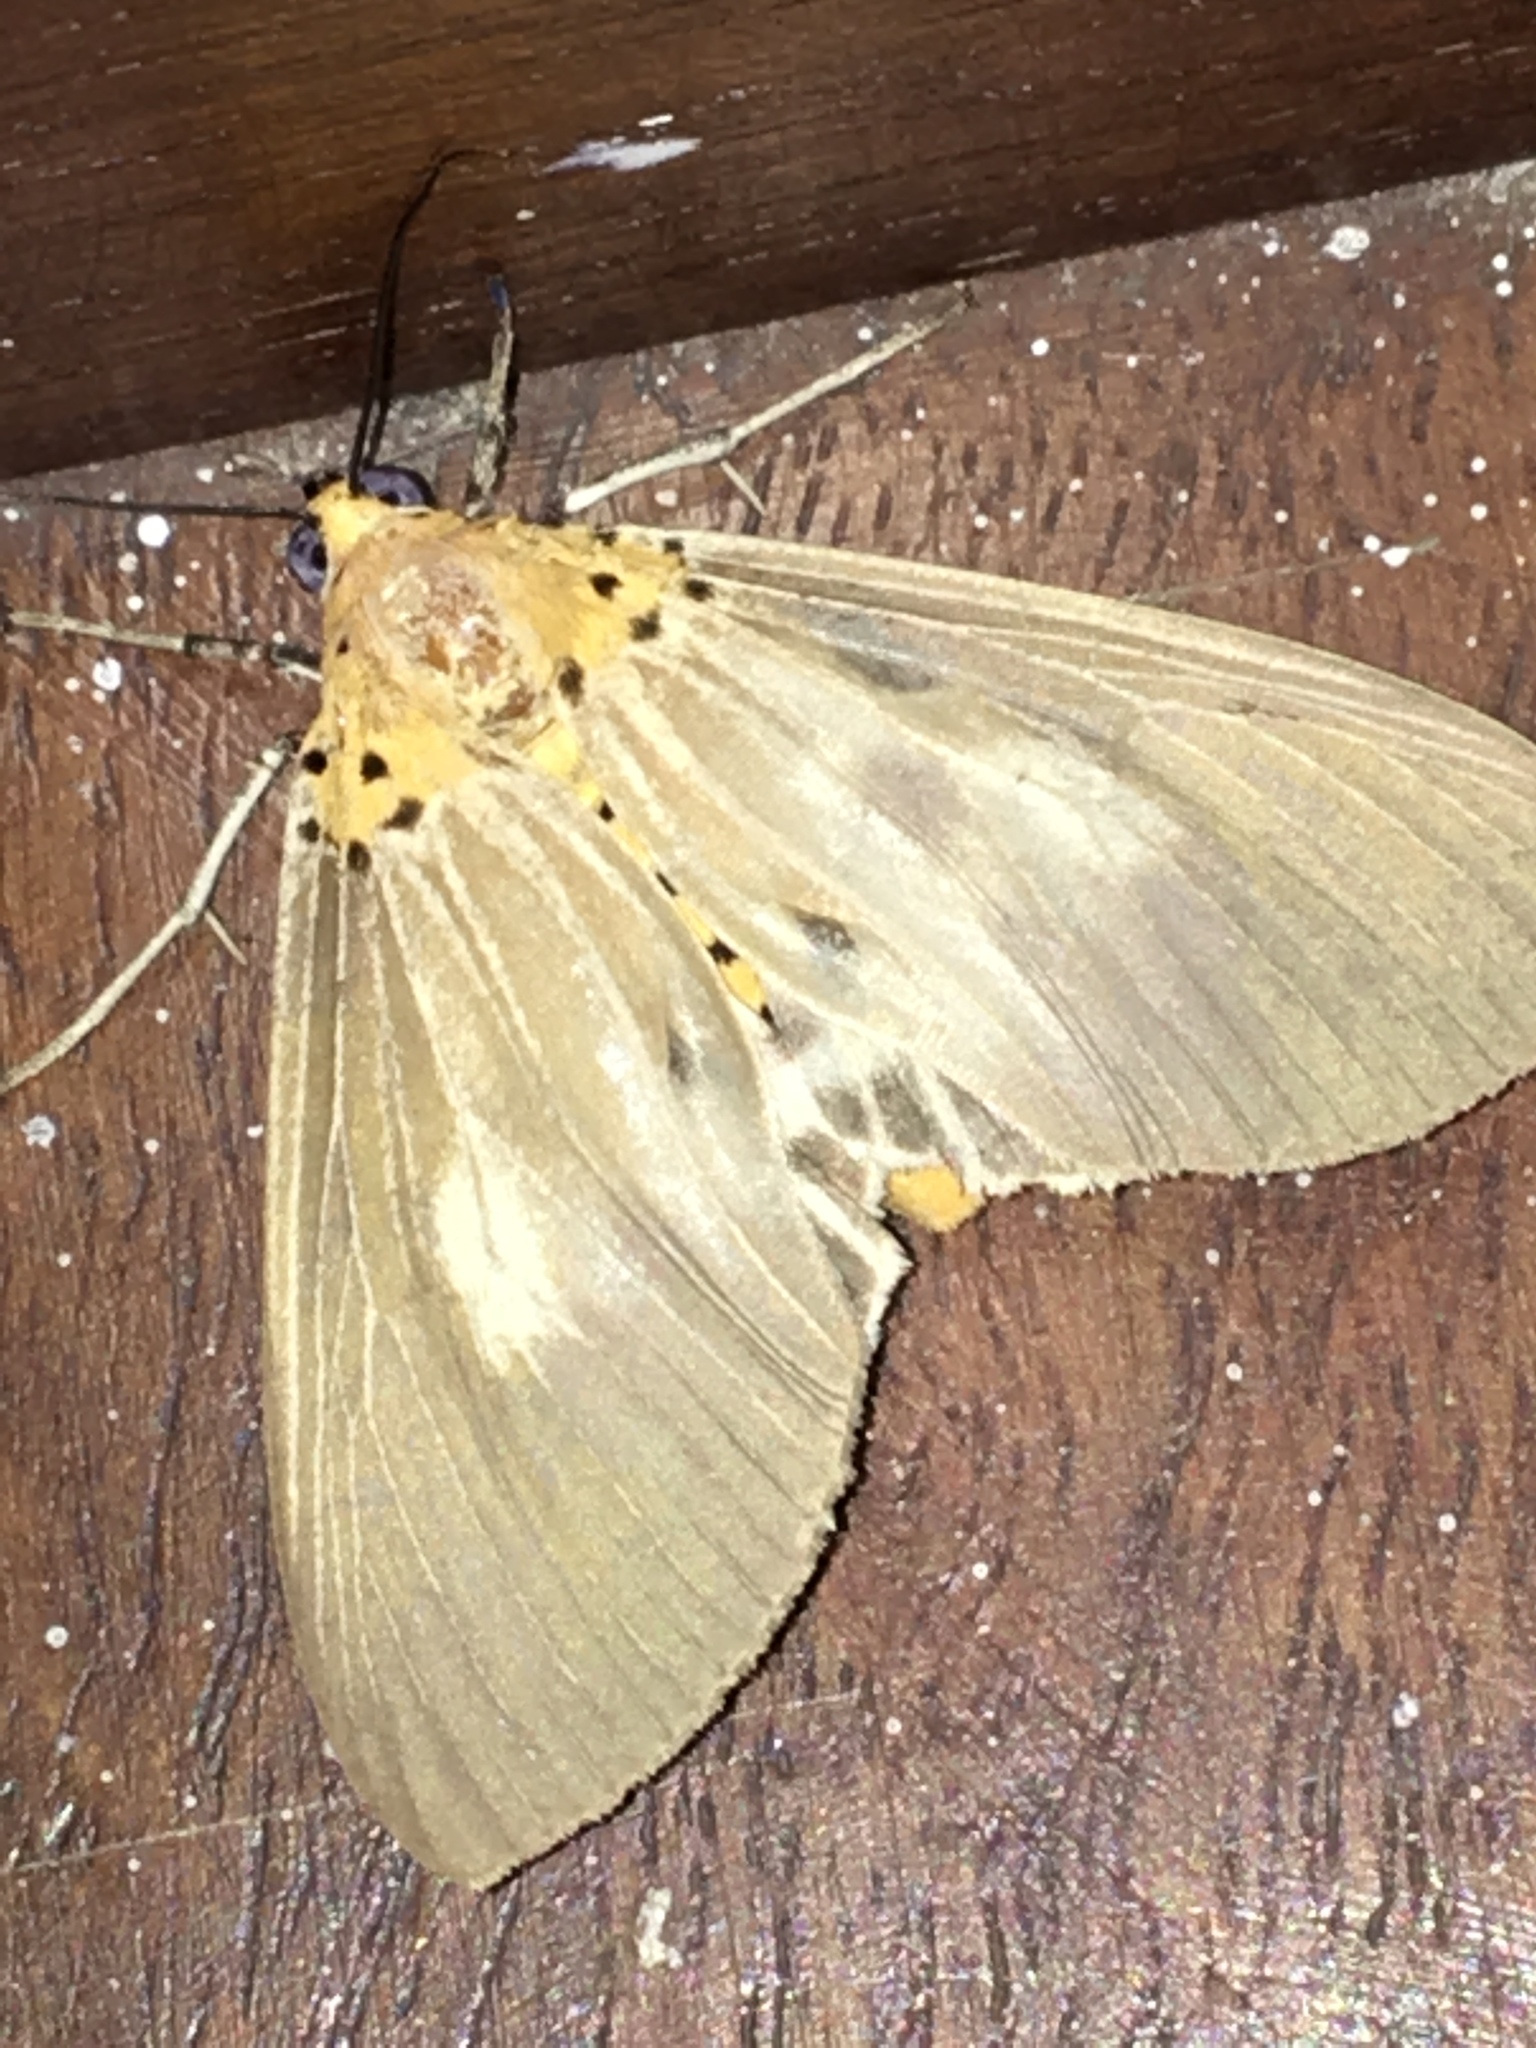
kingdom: Animalia
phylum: Arthropoda
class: Insecta
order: Lepidoptera
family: Erebidae
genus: Asota
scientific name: Asota canaraica
